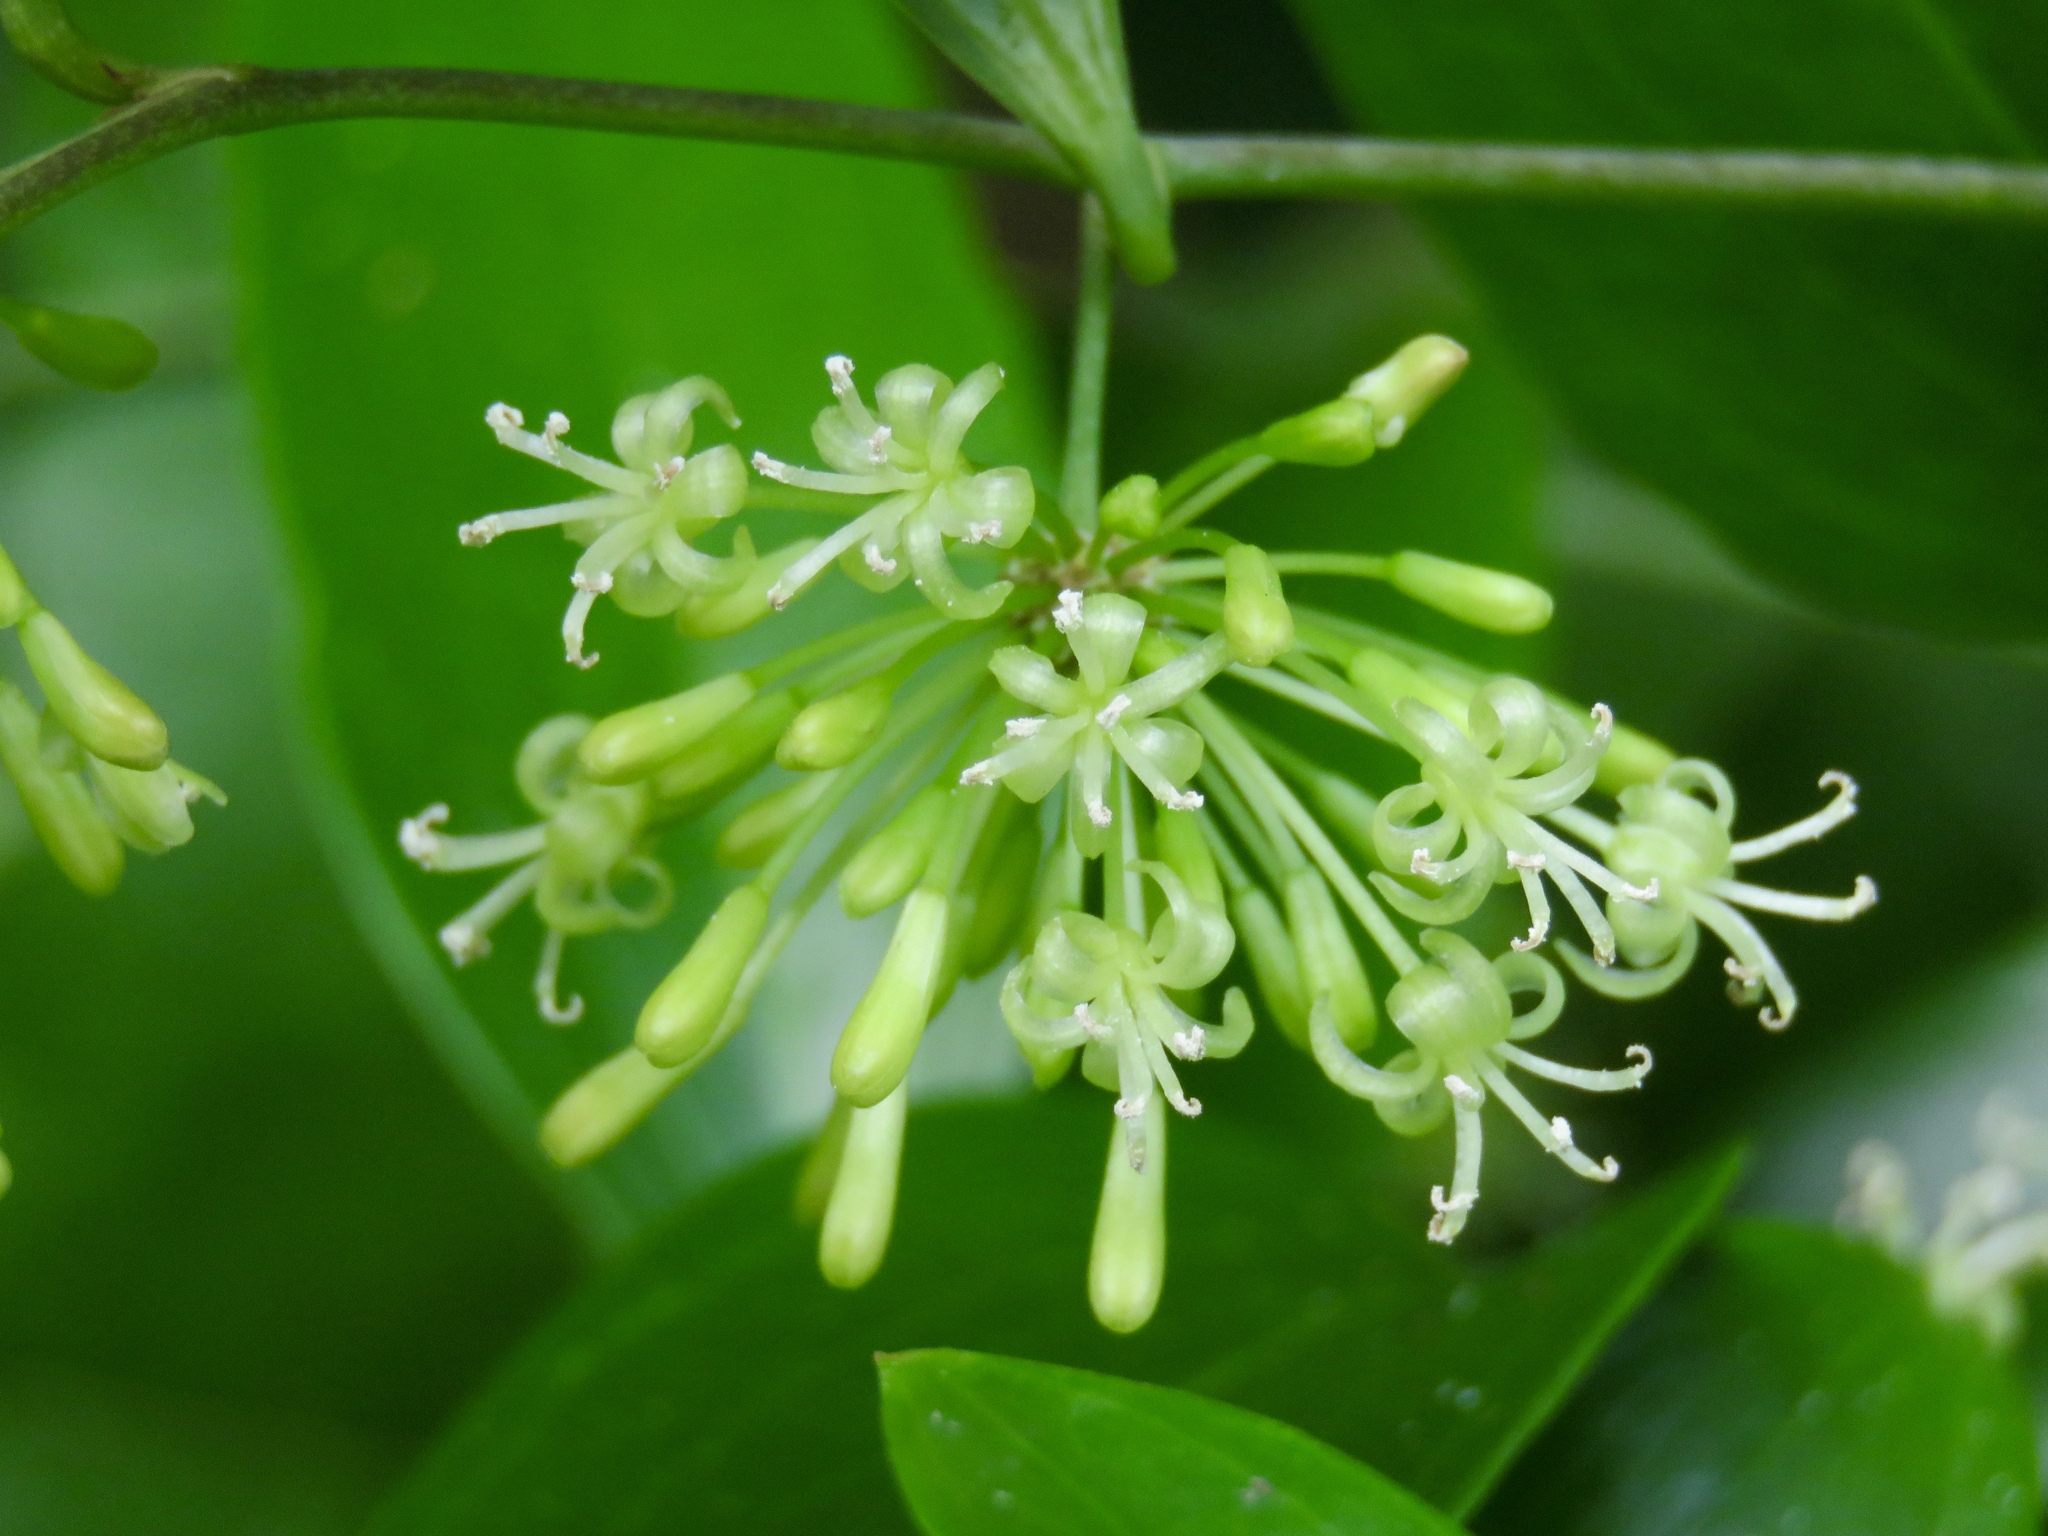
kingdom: Plantae
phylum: Tracheophyta
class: Liliopsida
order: Liliales
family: Smilacaceae
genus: Smilax
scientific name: Smilax maritima
